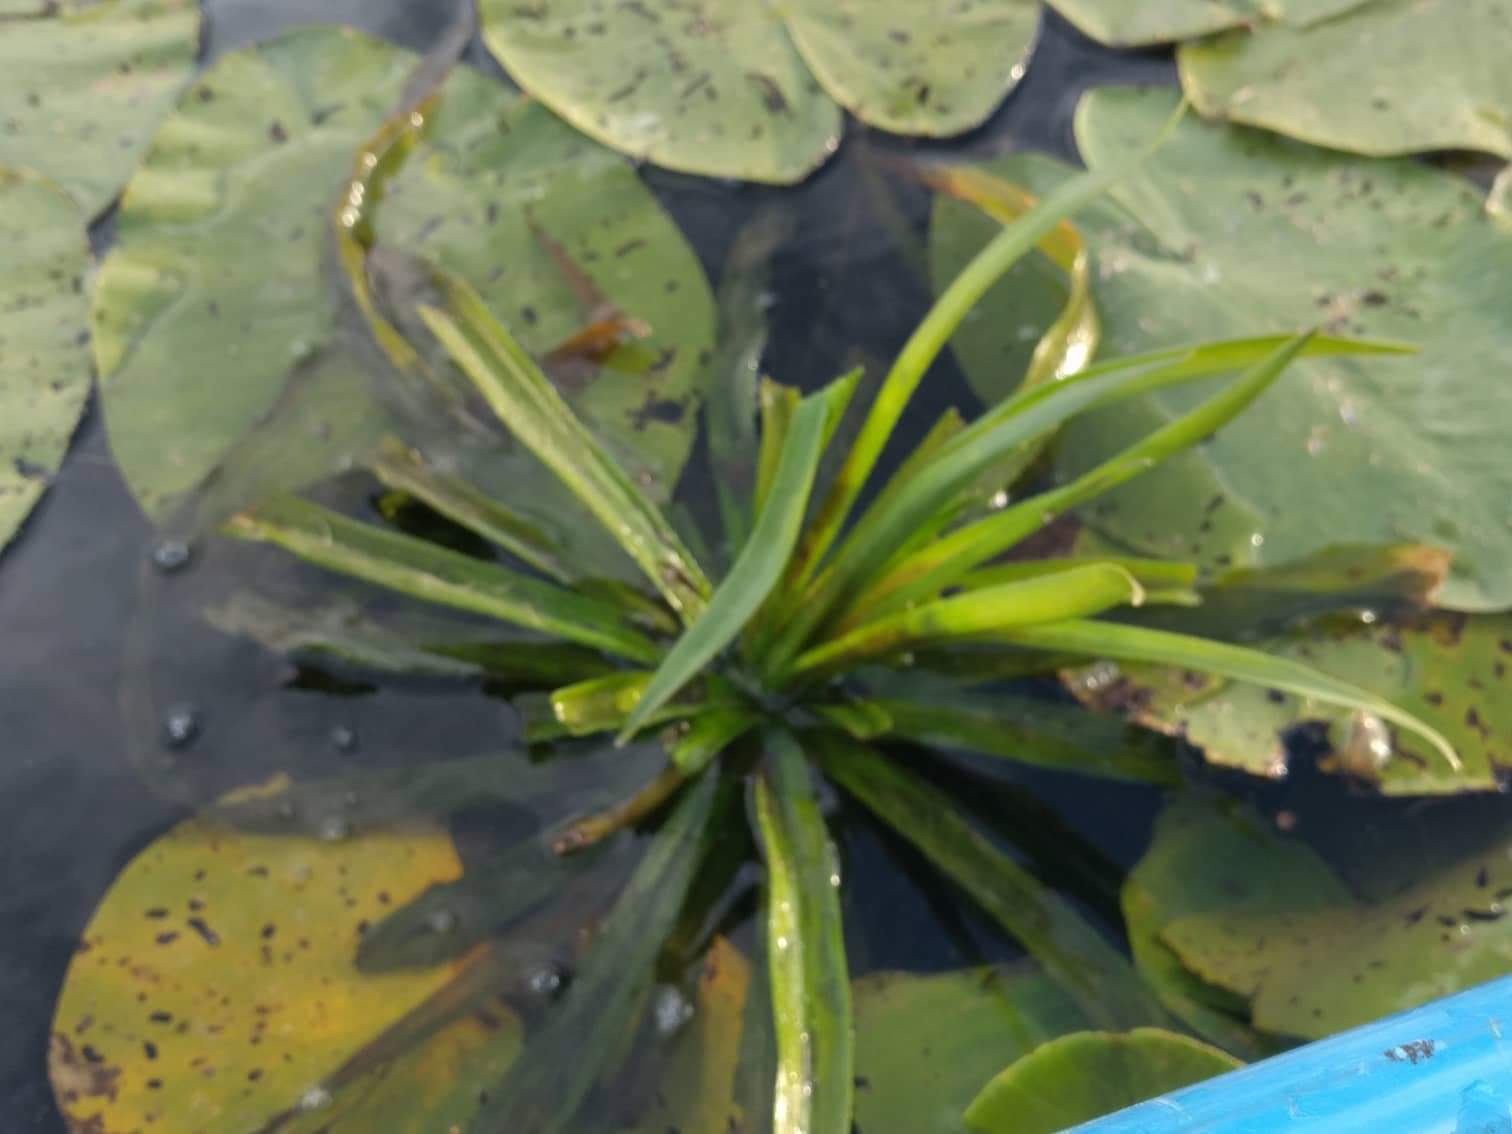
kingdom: Plantae
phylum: Tracheophyta
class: Liliopsida
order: Alismatales
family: Hydrocharitaceae
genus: Stratiotes
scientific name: Stratiotes aloides
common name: Water-soldier
